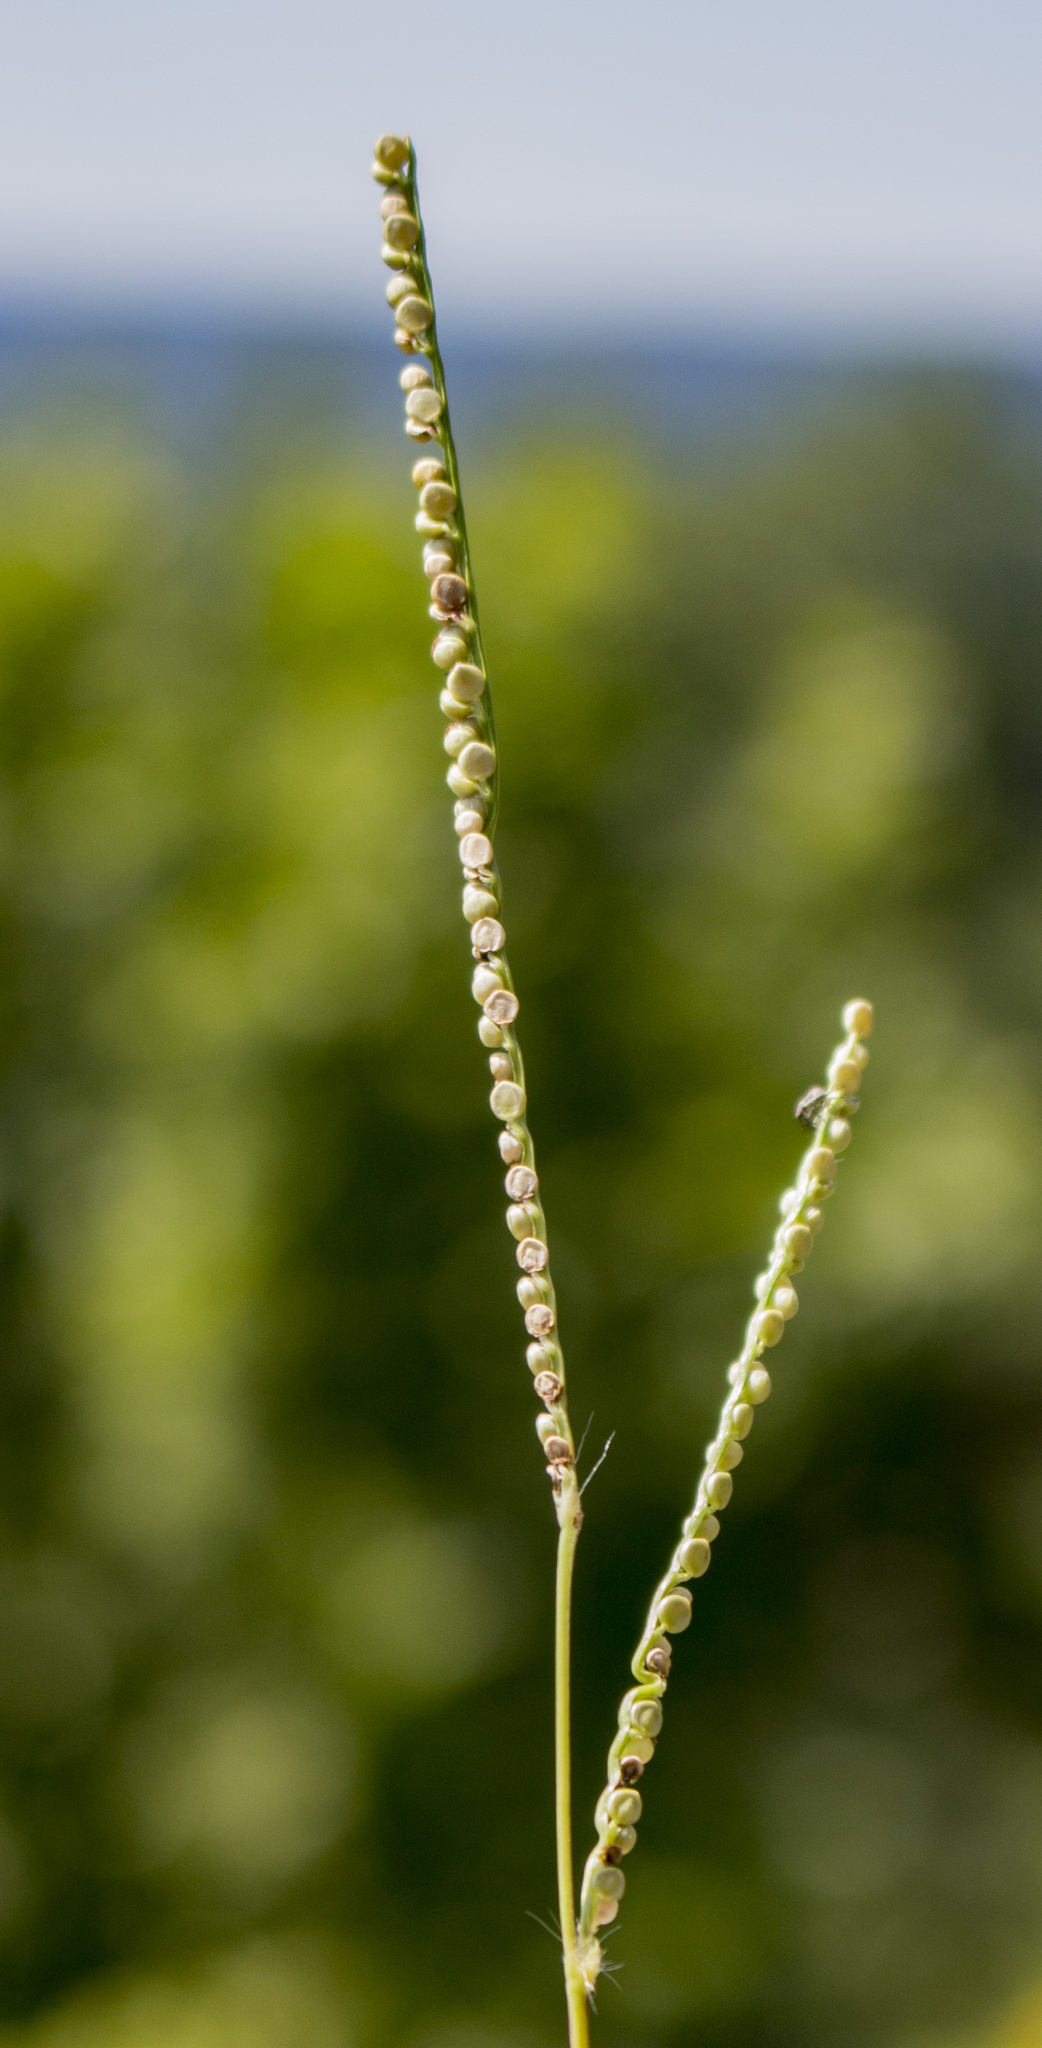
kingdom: Plantae
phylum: Tracheophyta
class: Liliopsida
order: Poales
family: Poaceae
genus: Paspalum
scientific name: Paspalum setaceum
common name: Slender paspalum
